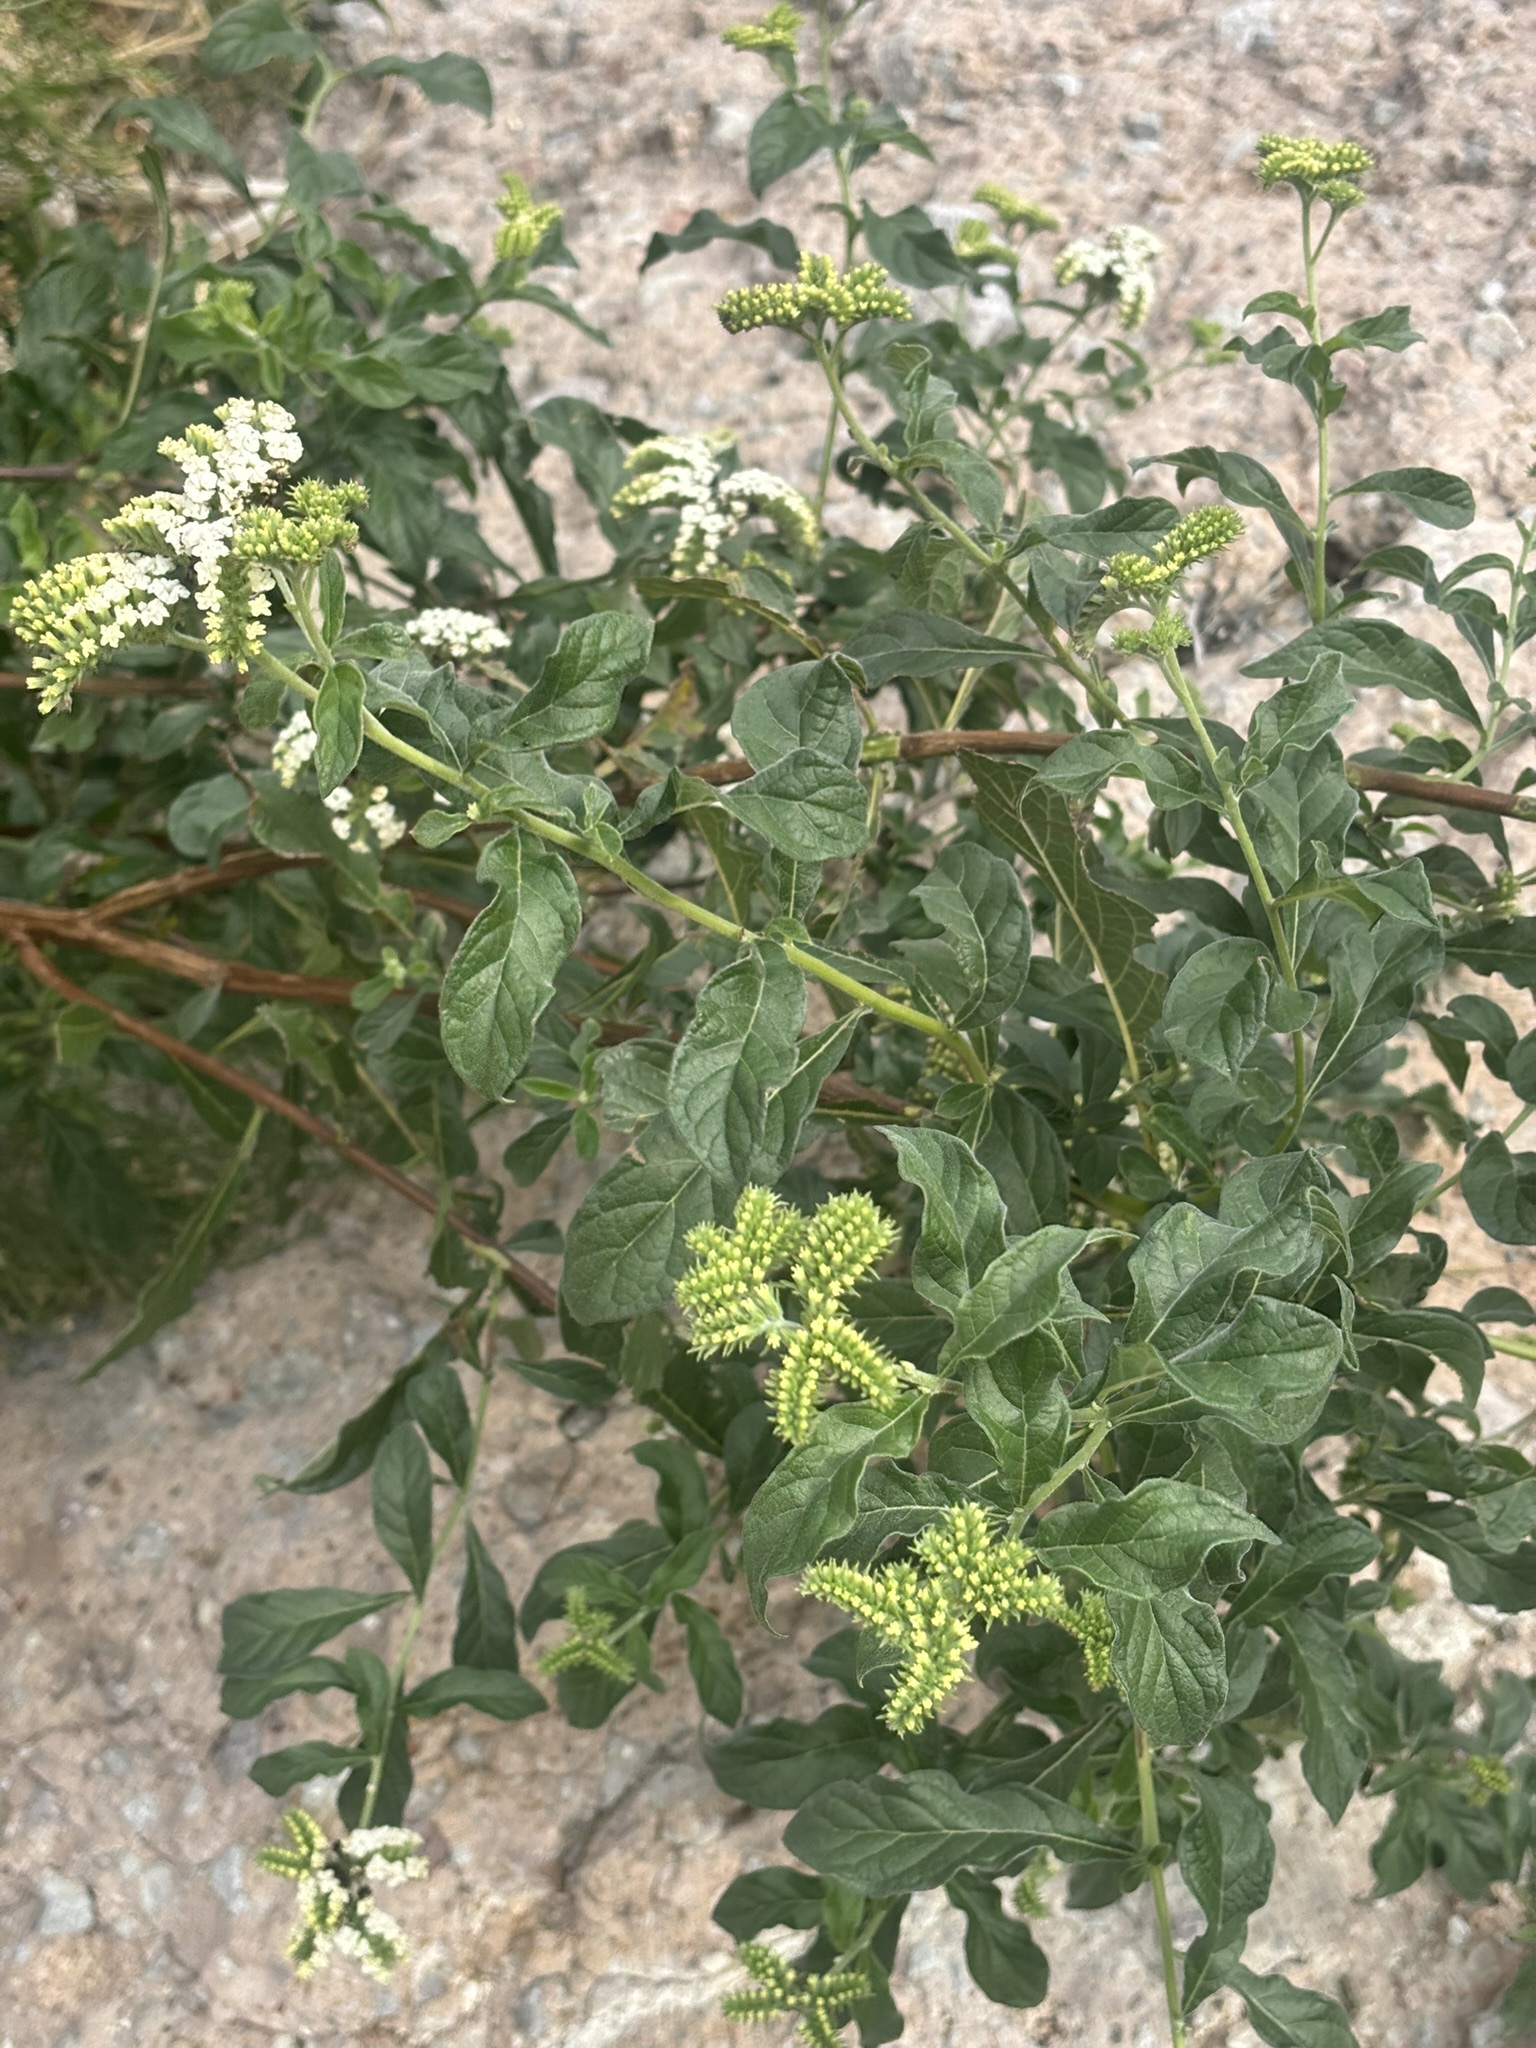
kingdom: Plantae
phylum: Tracheophyta
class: Magnoliopsida
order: Boraginales
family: Heliotropiaceae
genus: Tournefortia
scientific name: Tournefortia mutabilis
